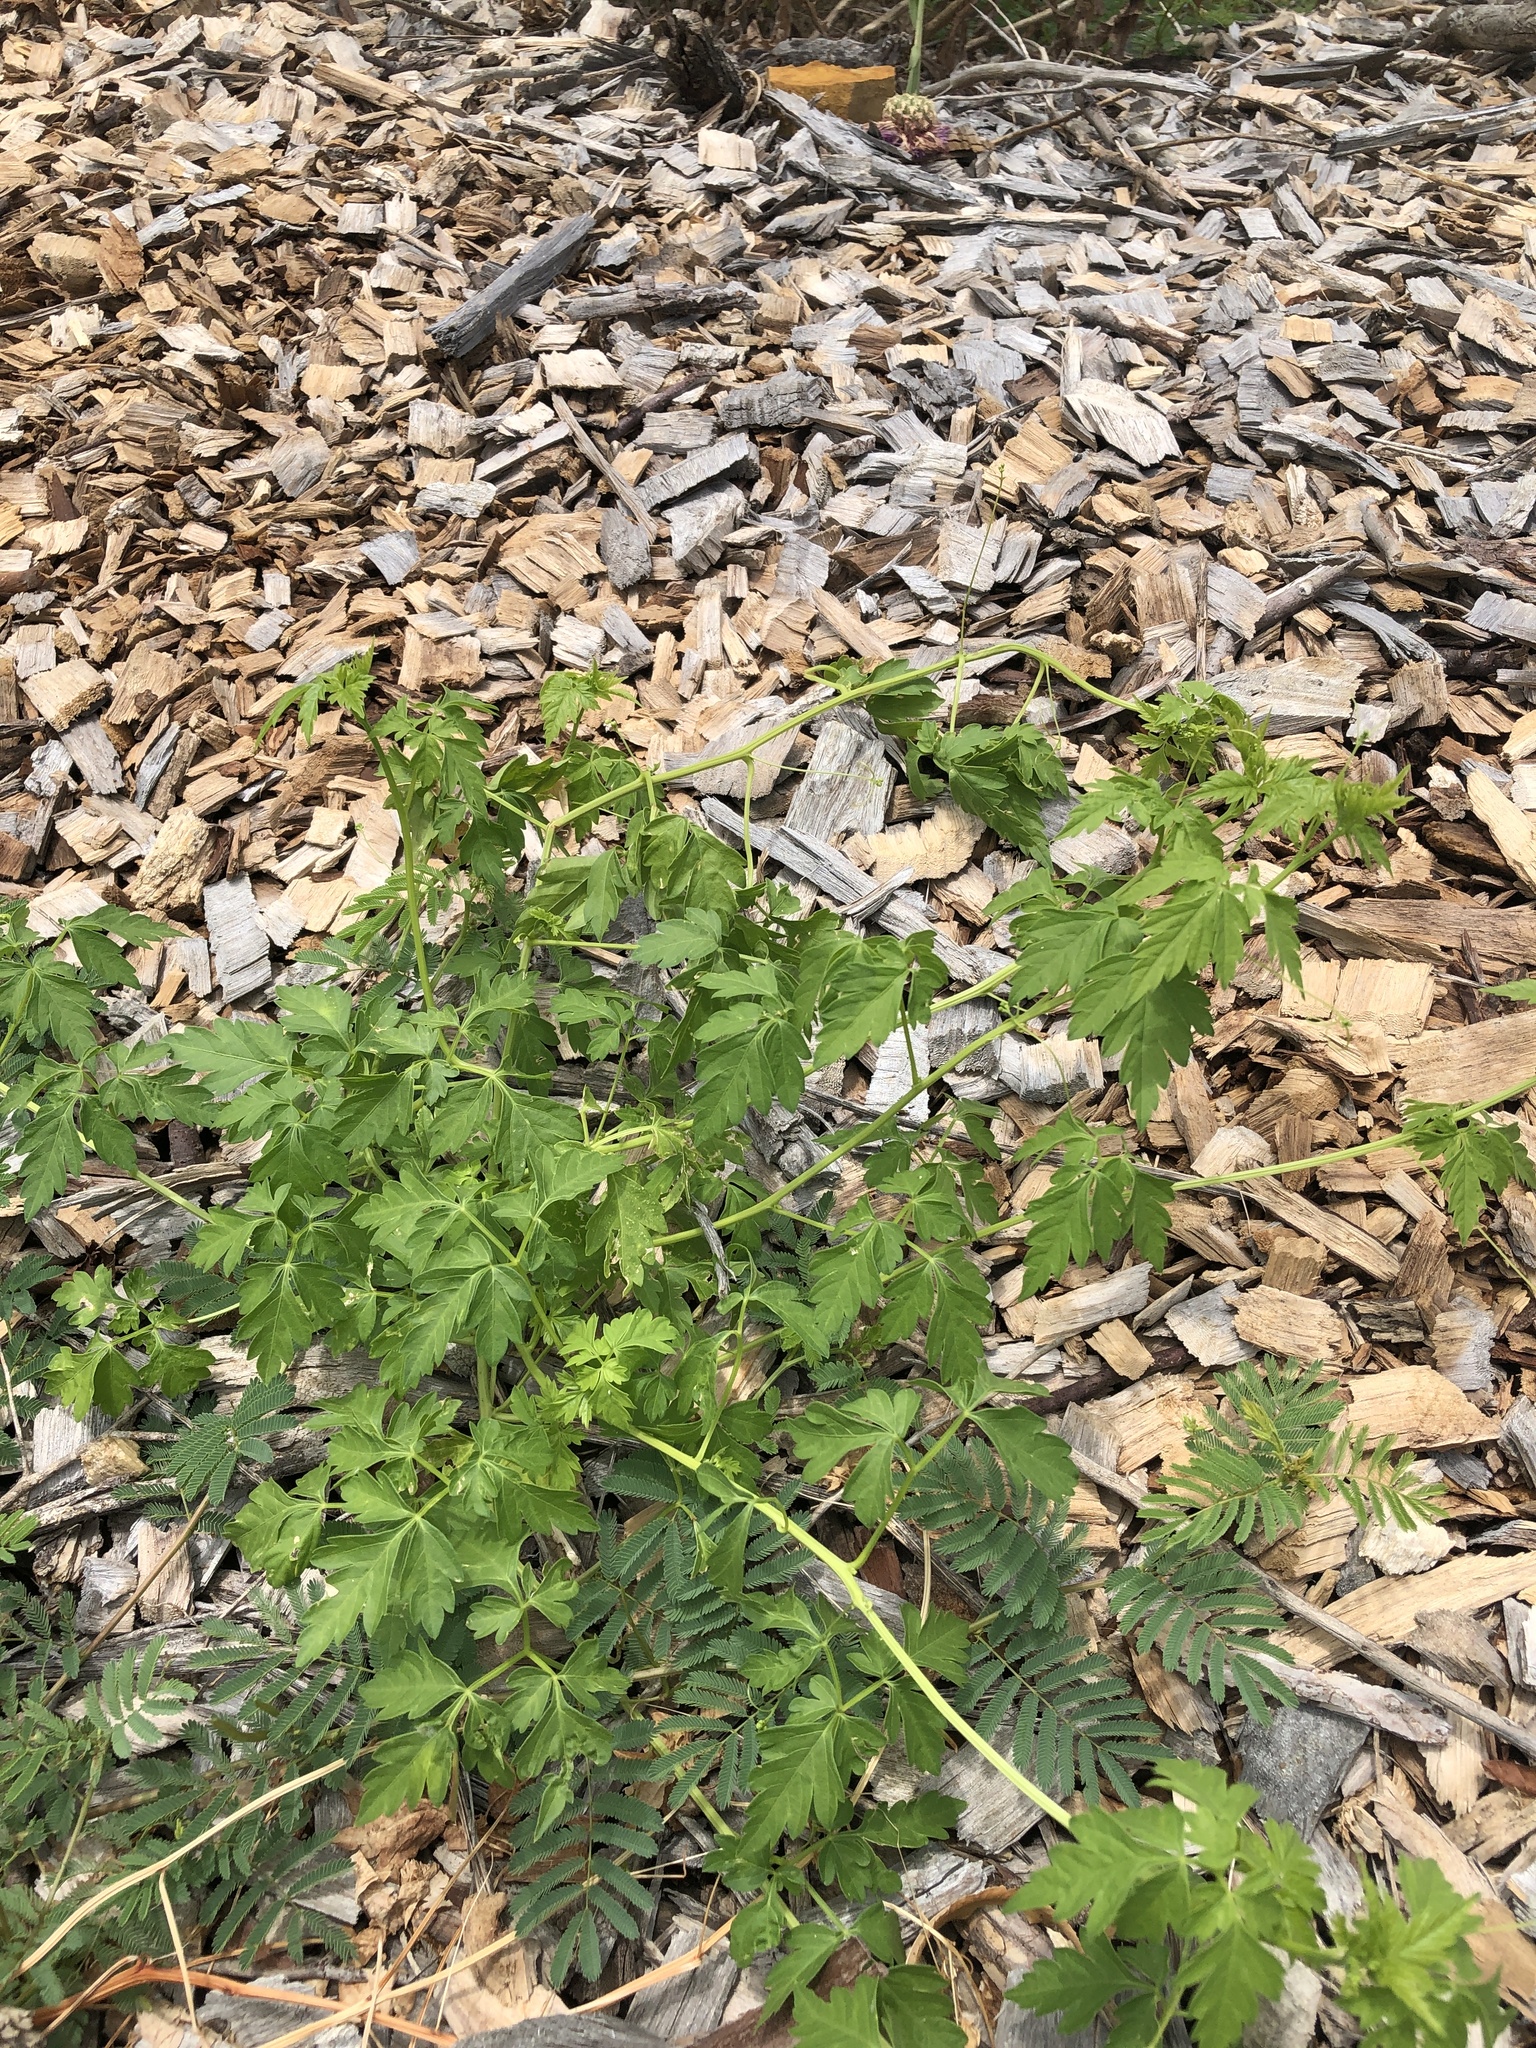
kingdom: Plantae
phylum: Tracheophyta
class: Magnoliopsida
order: Sapindales
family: Sapindaceae
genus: Cardiospermum
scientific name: Cardiospermum halicacabum
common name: Balloon vine
